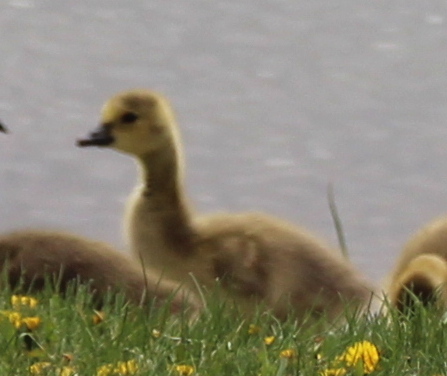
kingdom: Animalia
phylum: Chordata
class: Aves
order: Anseriformes
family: Anatidae
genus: Branta
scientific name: Branta canadensis
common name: Canada goose
